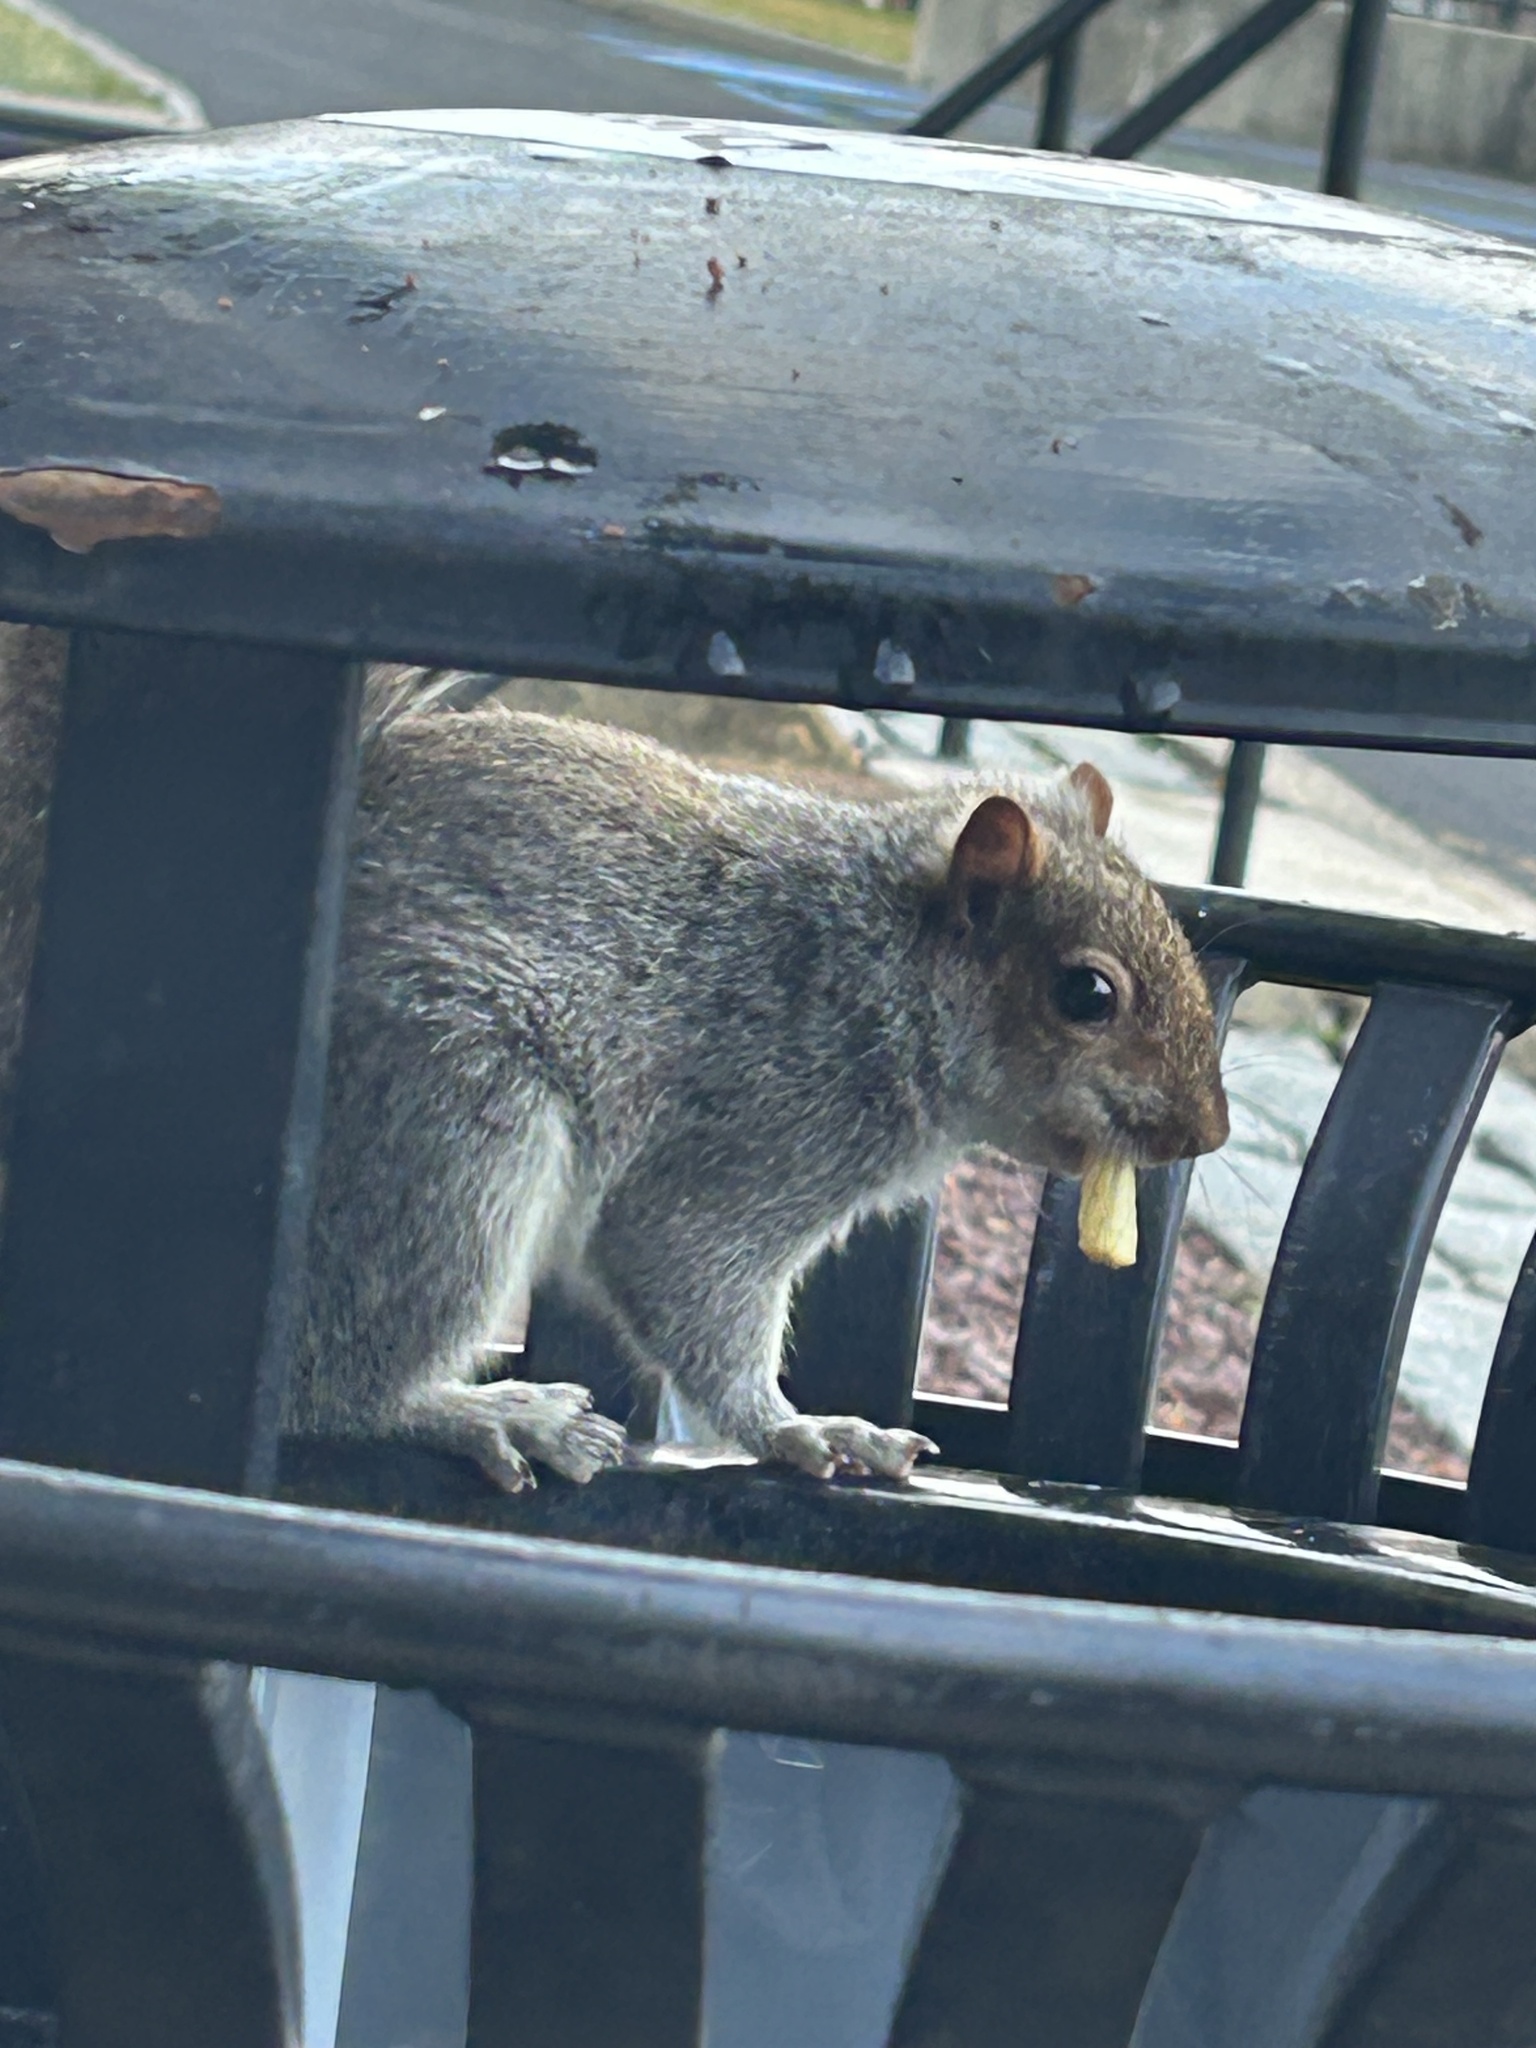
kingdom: Animalia
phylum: Chordata
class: Mammalia
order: Rodentia
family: Sciuridae
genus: Sciurus
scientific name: Sciurus carolinensis
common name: Eastern gray squirrel
